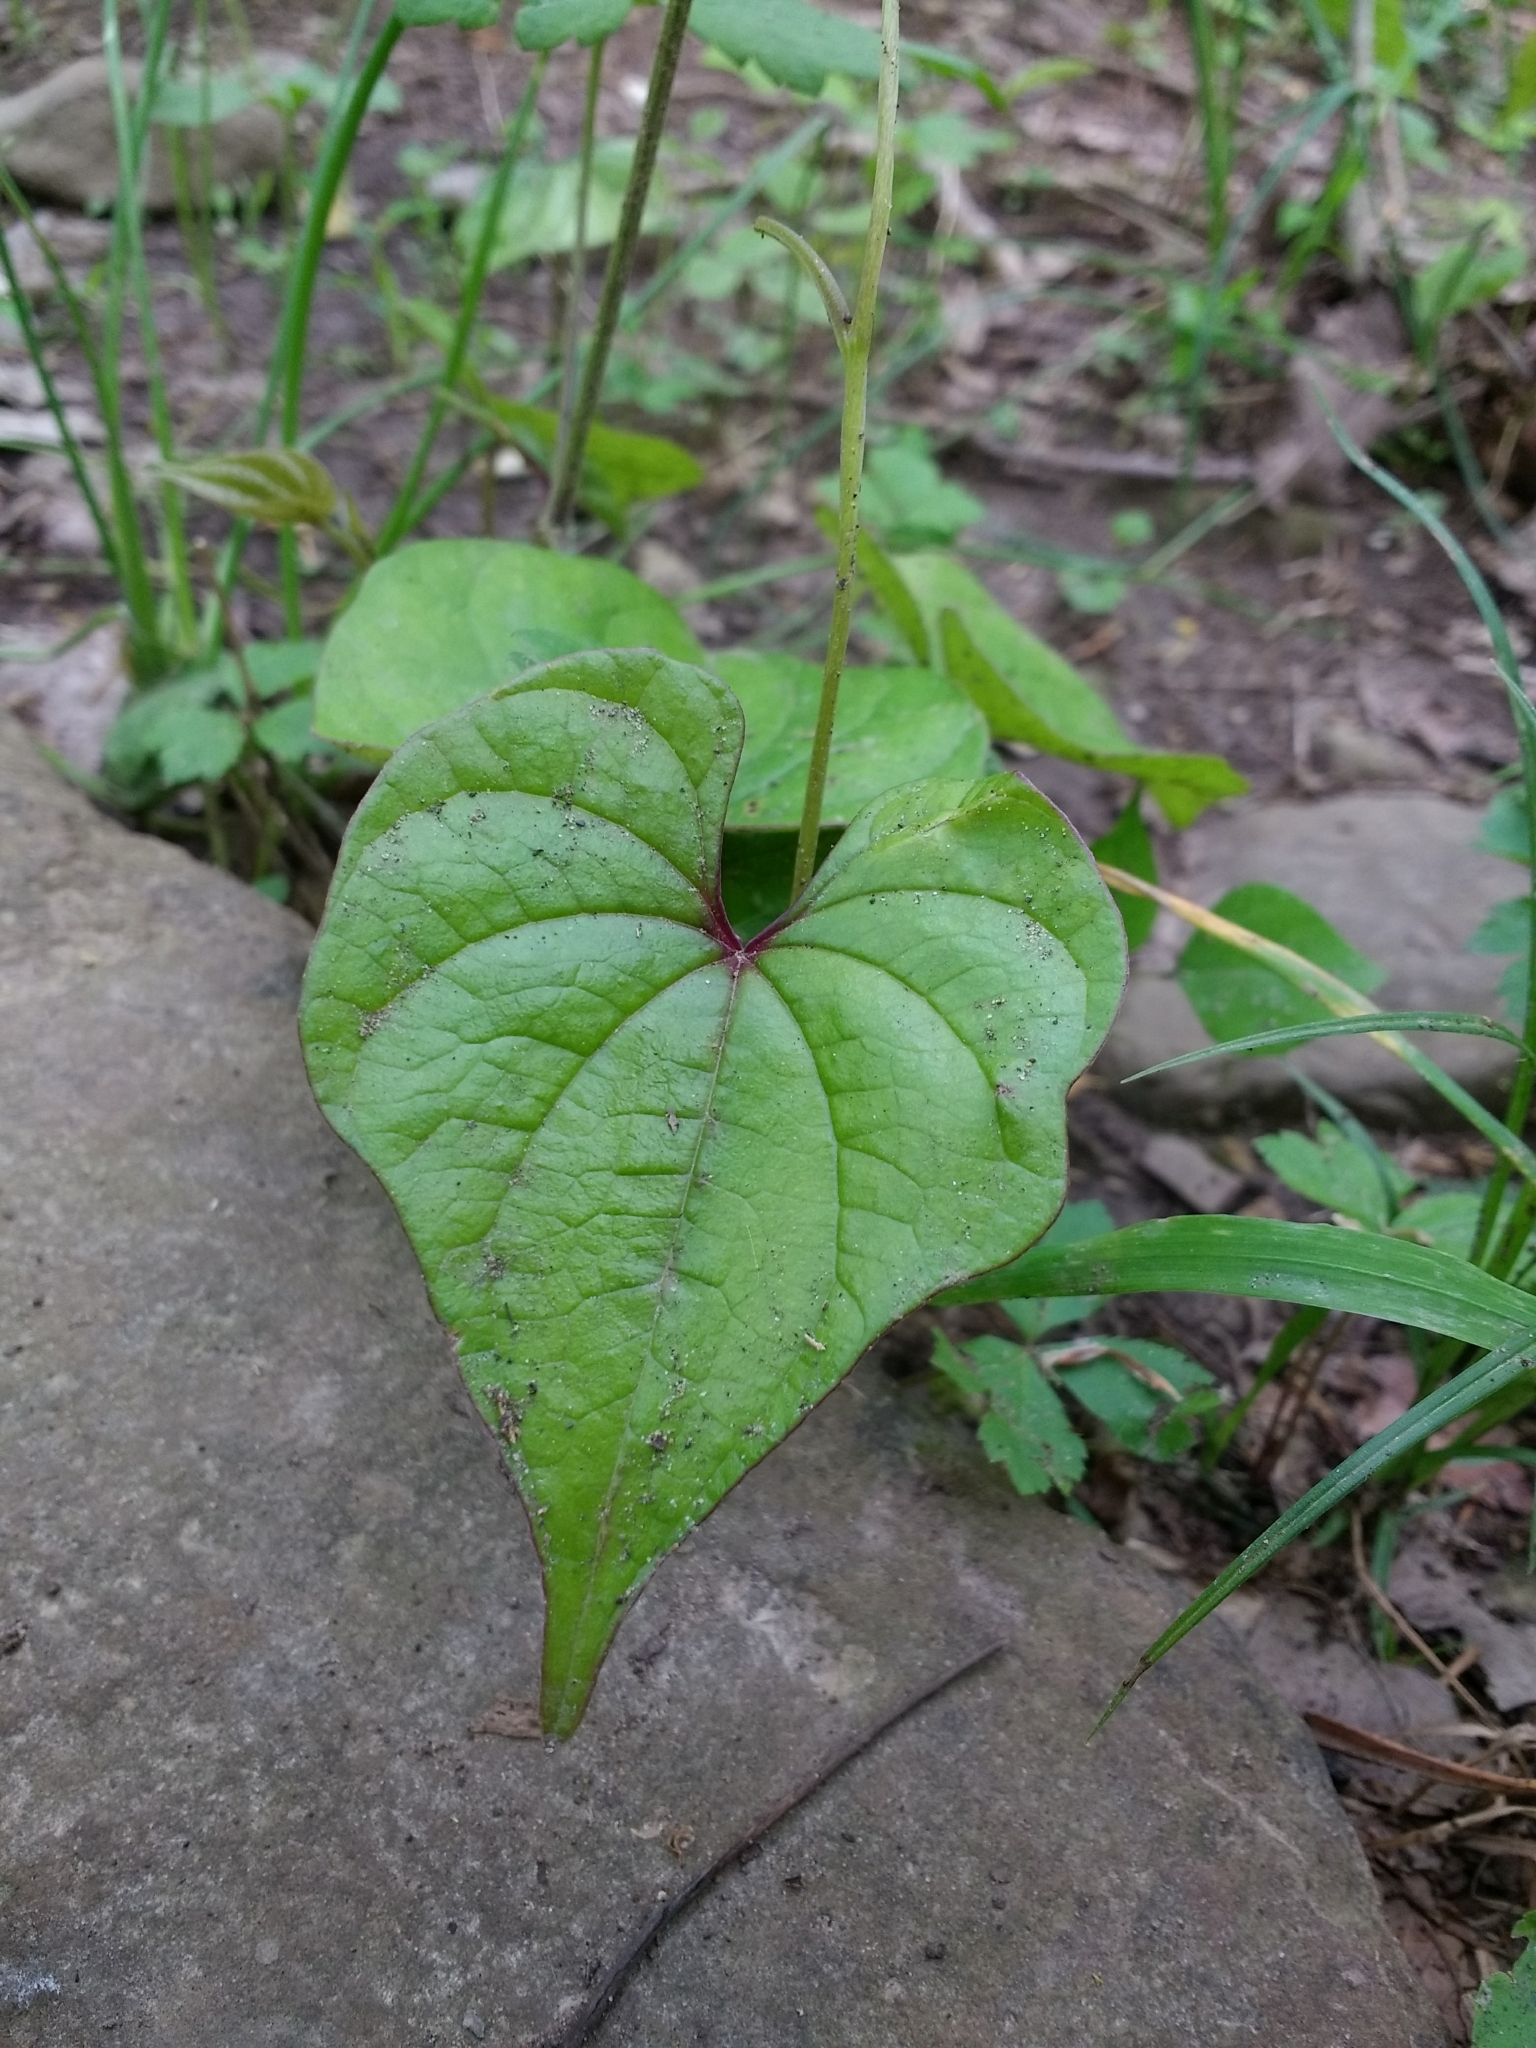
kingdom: Plantae
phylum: Tracheophyta
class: Liliopsida
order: Dioscoreales
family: Dioscoreaceae
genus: Dioscorea
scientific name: Dioscorea polystachya
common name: Chinese yam
